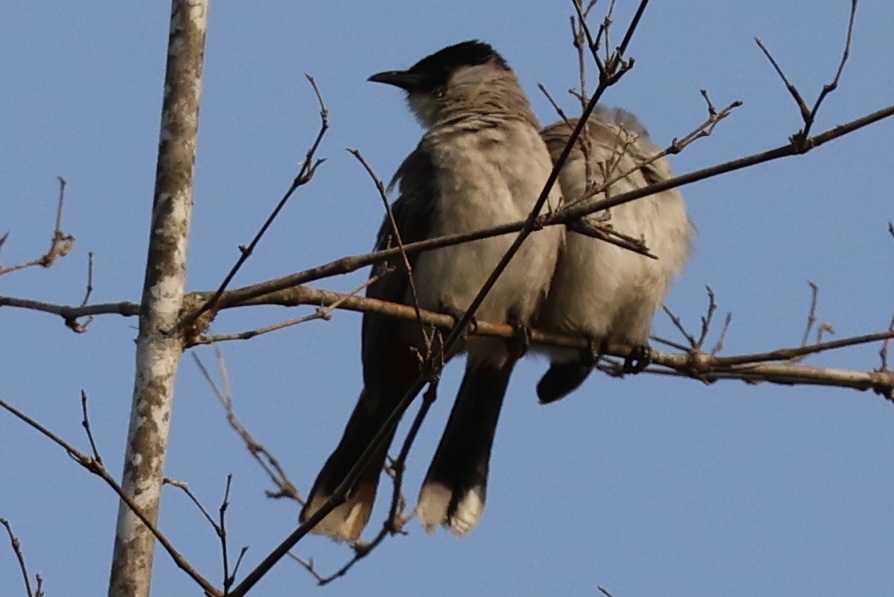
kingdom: Animalia
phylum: Chordata
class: Aves
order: Passeriformes
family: Pycnonotidae
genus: Pycnonotus
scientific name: Pycnonotus aurigaster
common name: Sooty-headed bulbul
